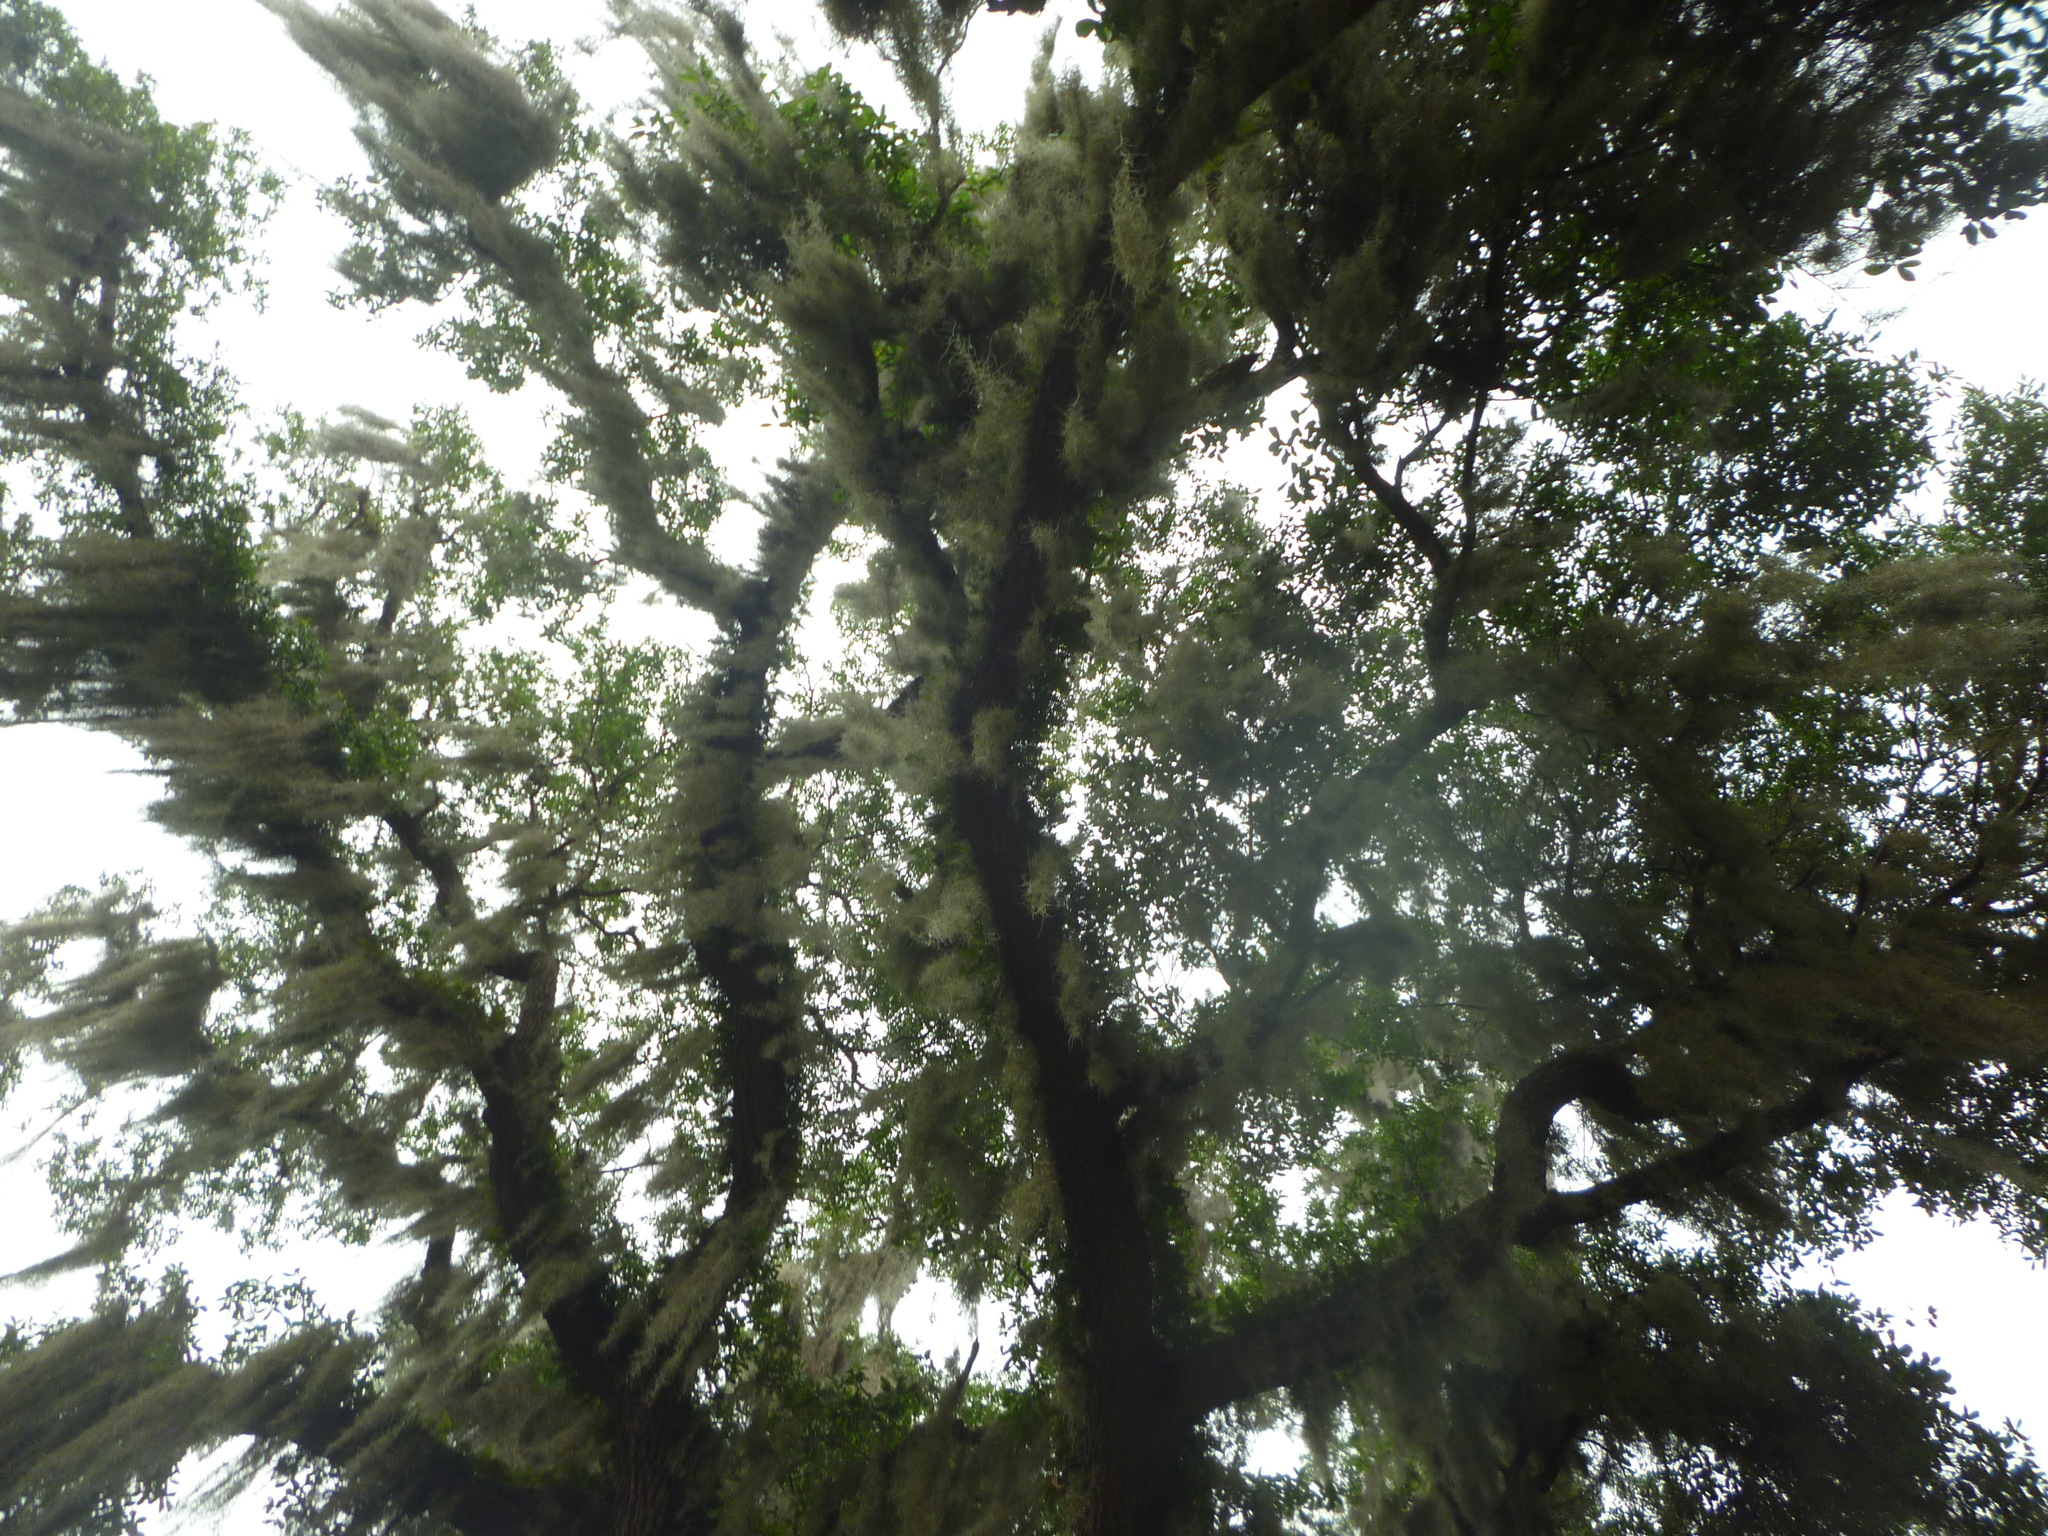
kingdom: Plantae
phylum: Tracheophyta
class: Liliopsida
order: Poales
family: Bromeliaceae
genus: Tillandsia
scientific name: Tillandsia usneoides
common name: Spanish moss
